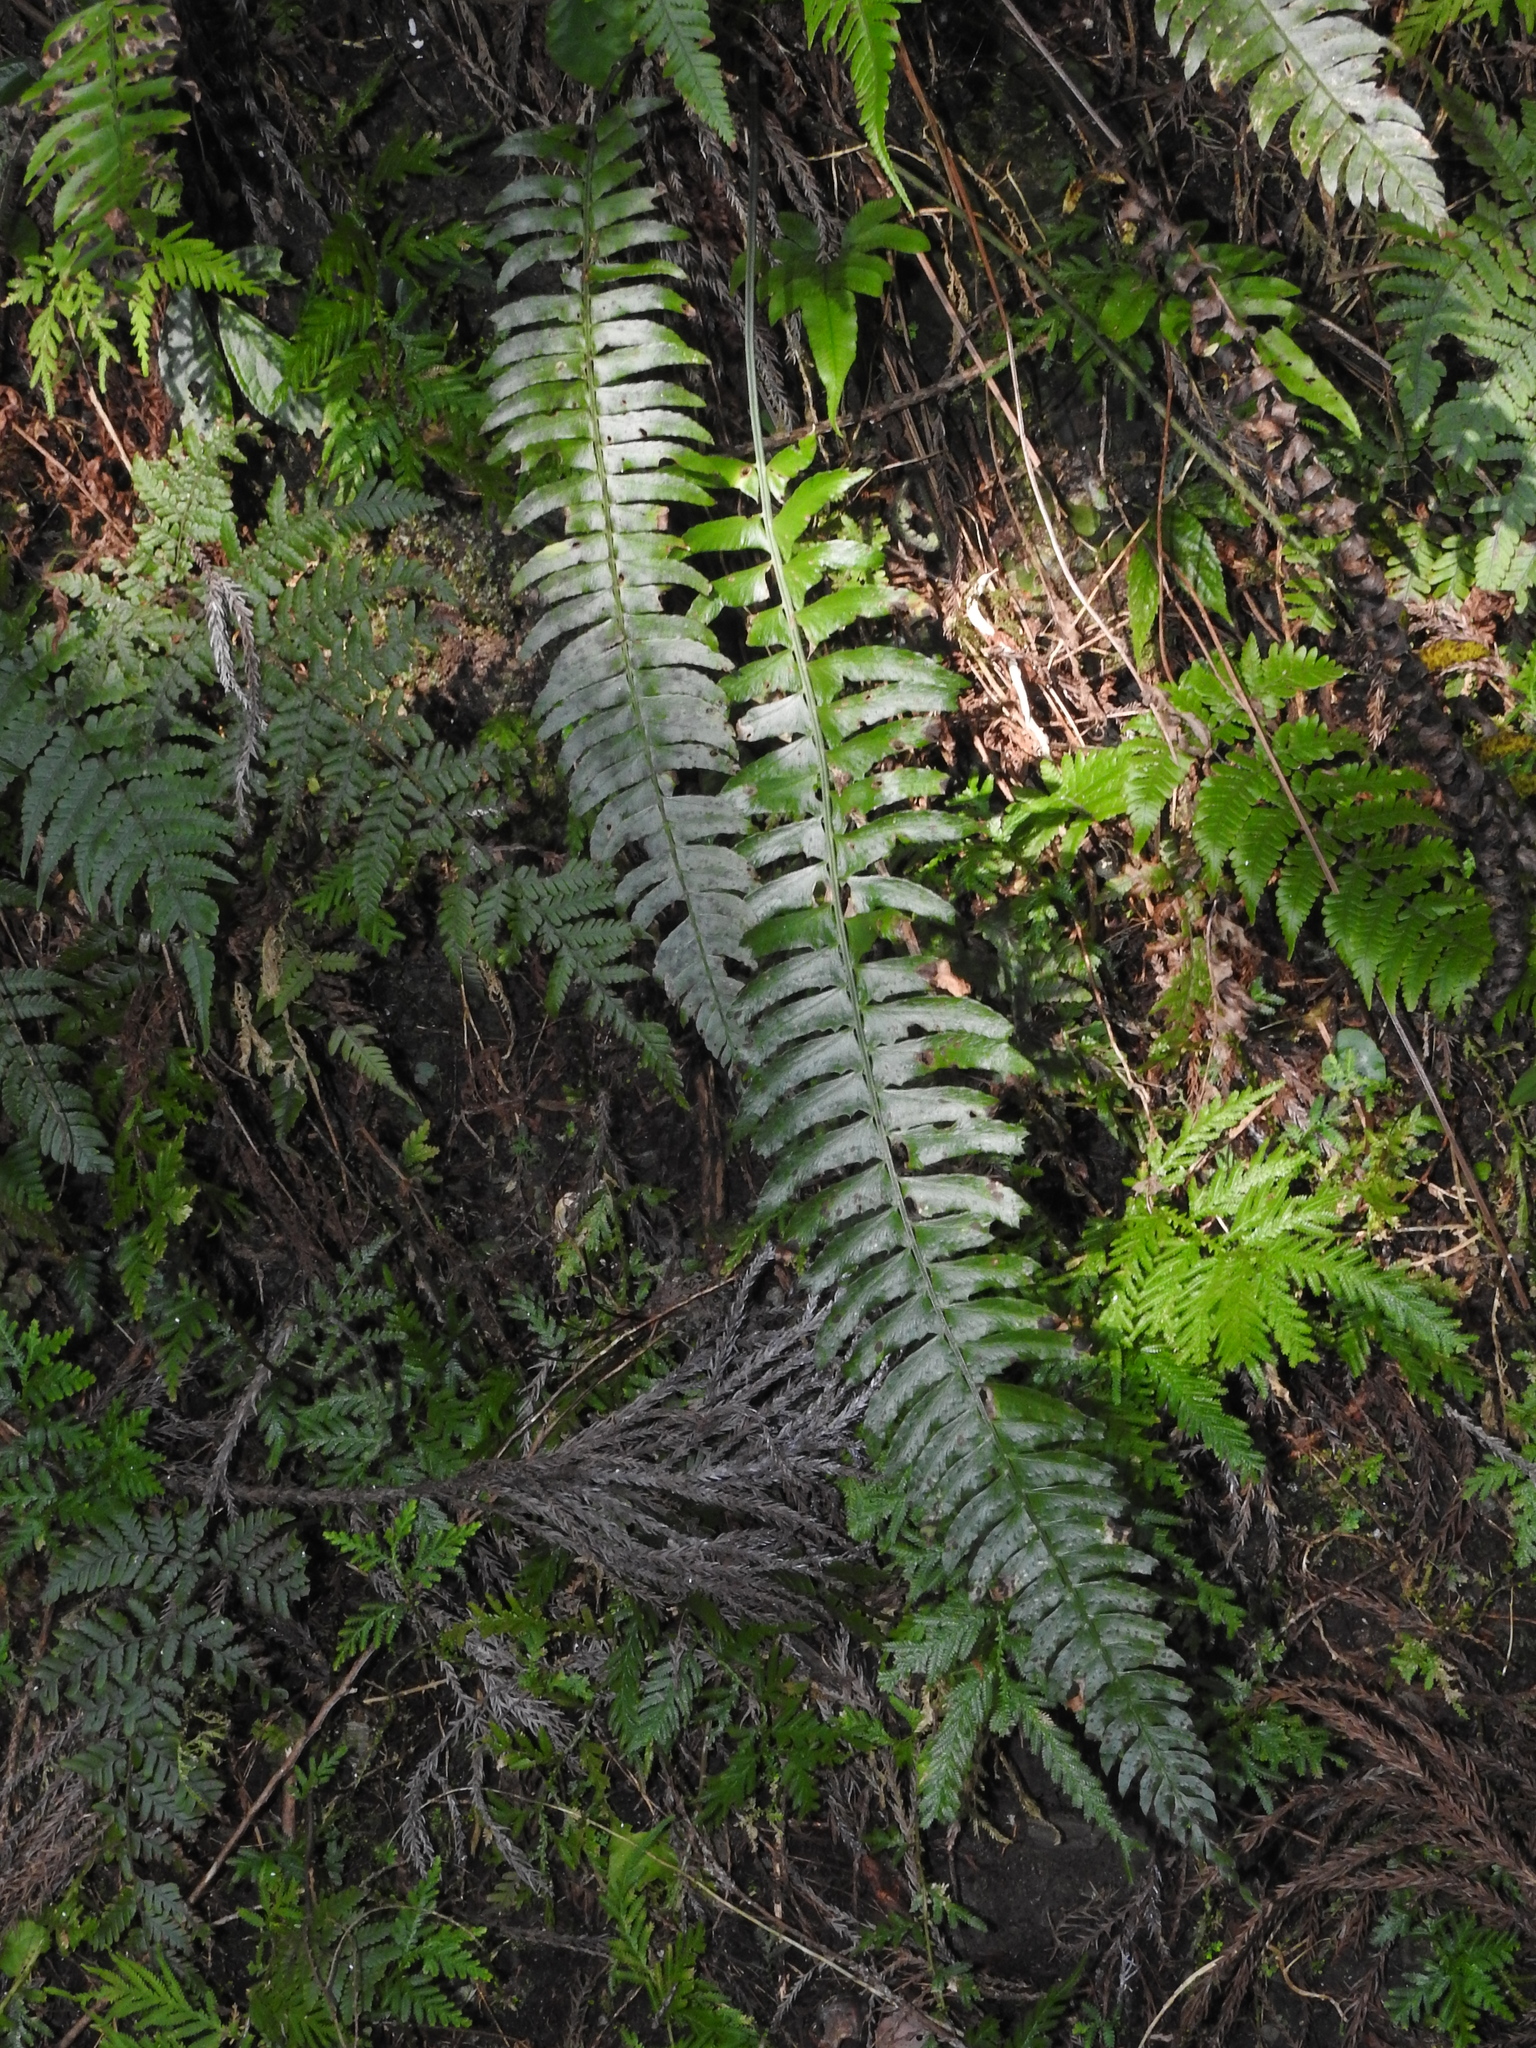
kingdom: Plantae
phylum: Tracheophyta
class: Polypodiopsida
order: Polypodiales
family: Dryopteridaceae
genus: Polystichum
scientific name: Polystichum acutidens
